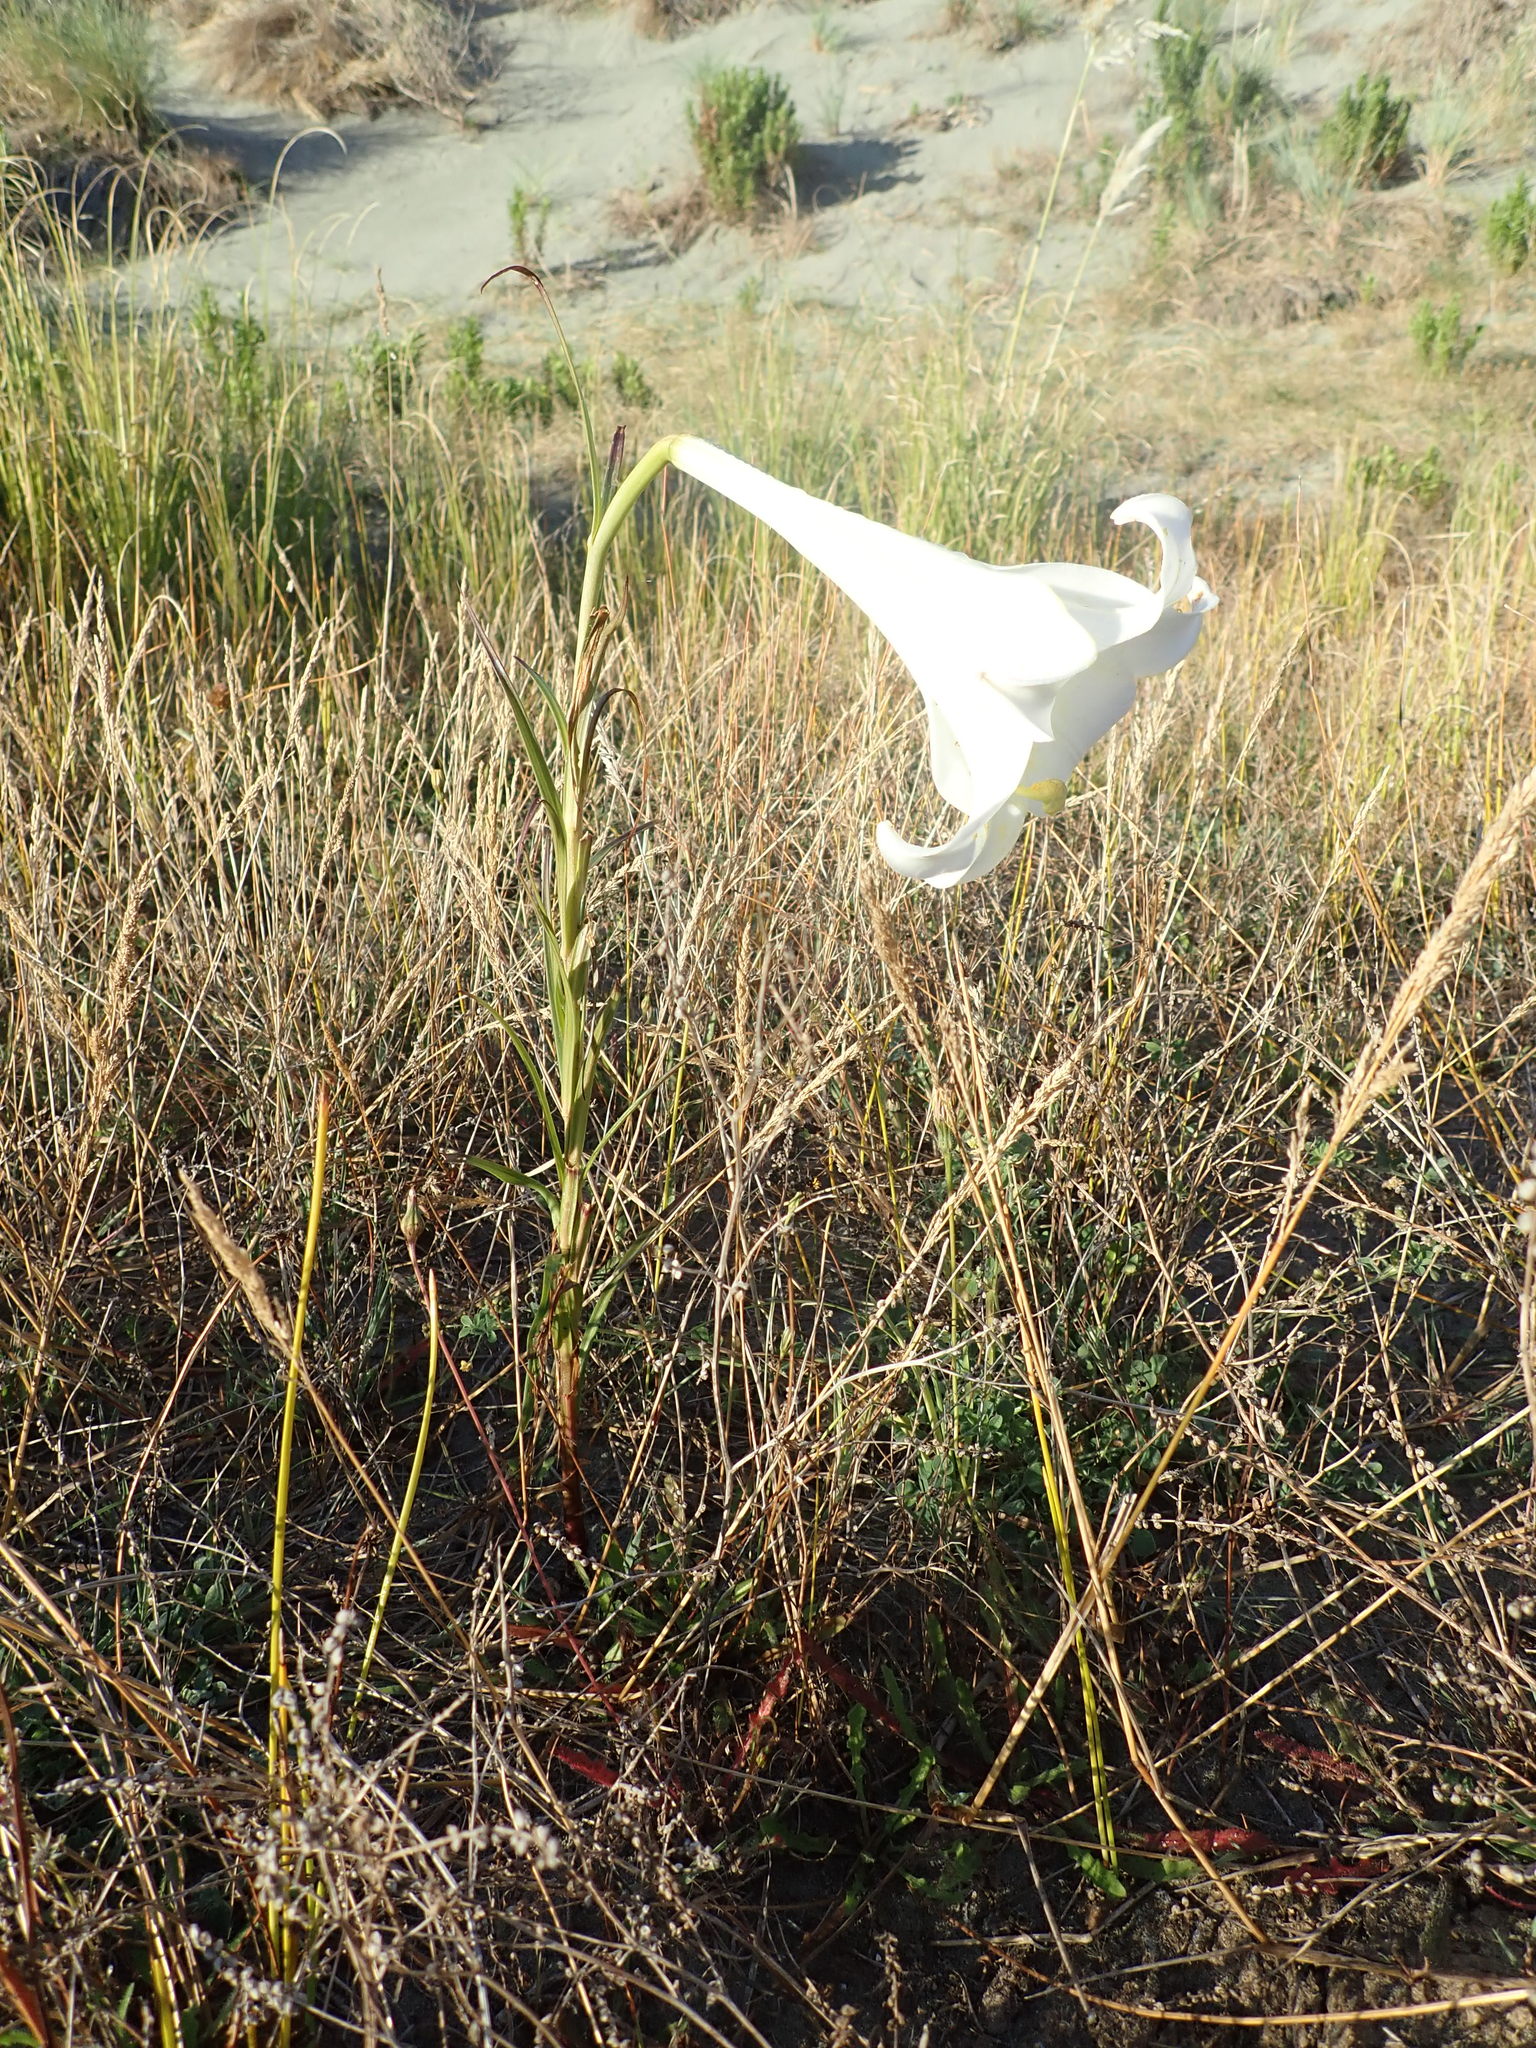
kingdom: Plantae
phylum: Tracheophyta
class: Liliopsida
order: Liliales
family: Liliaceae
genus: Lilium
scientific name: Lilium formosanum
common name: Formosa lily
